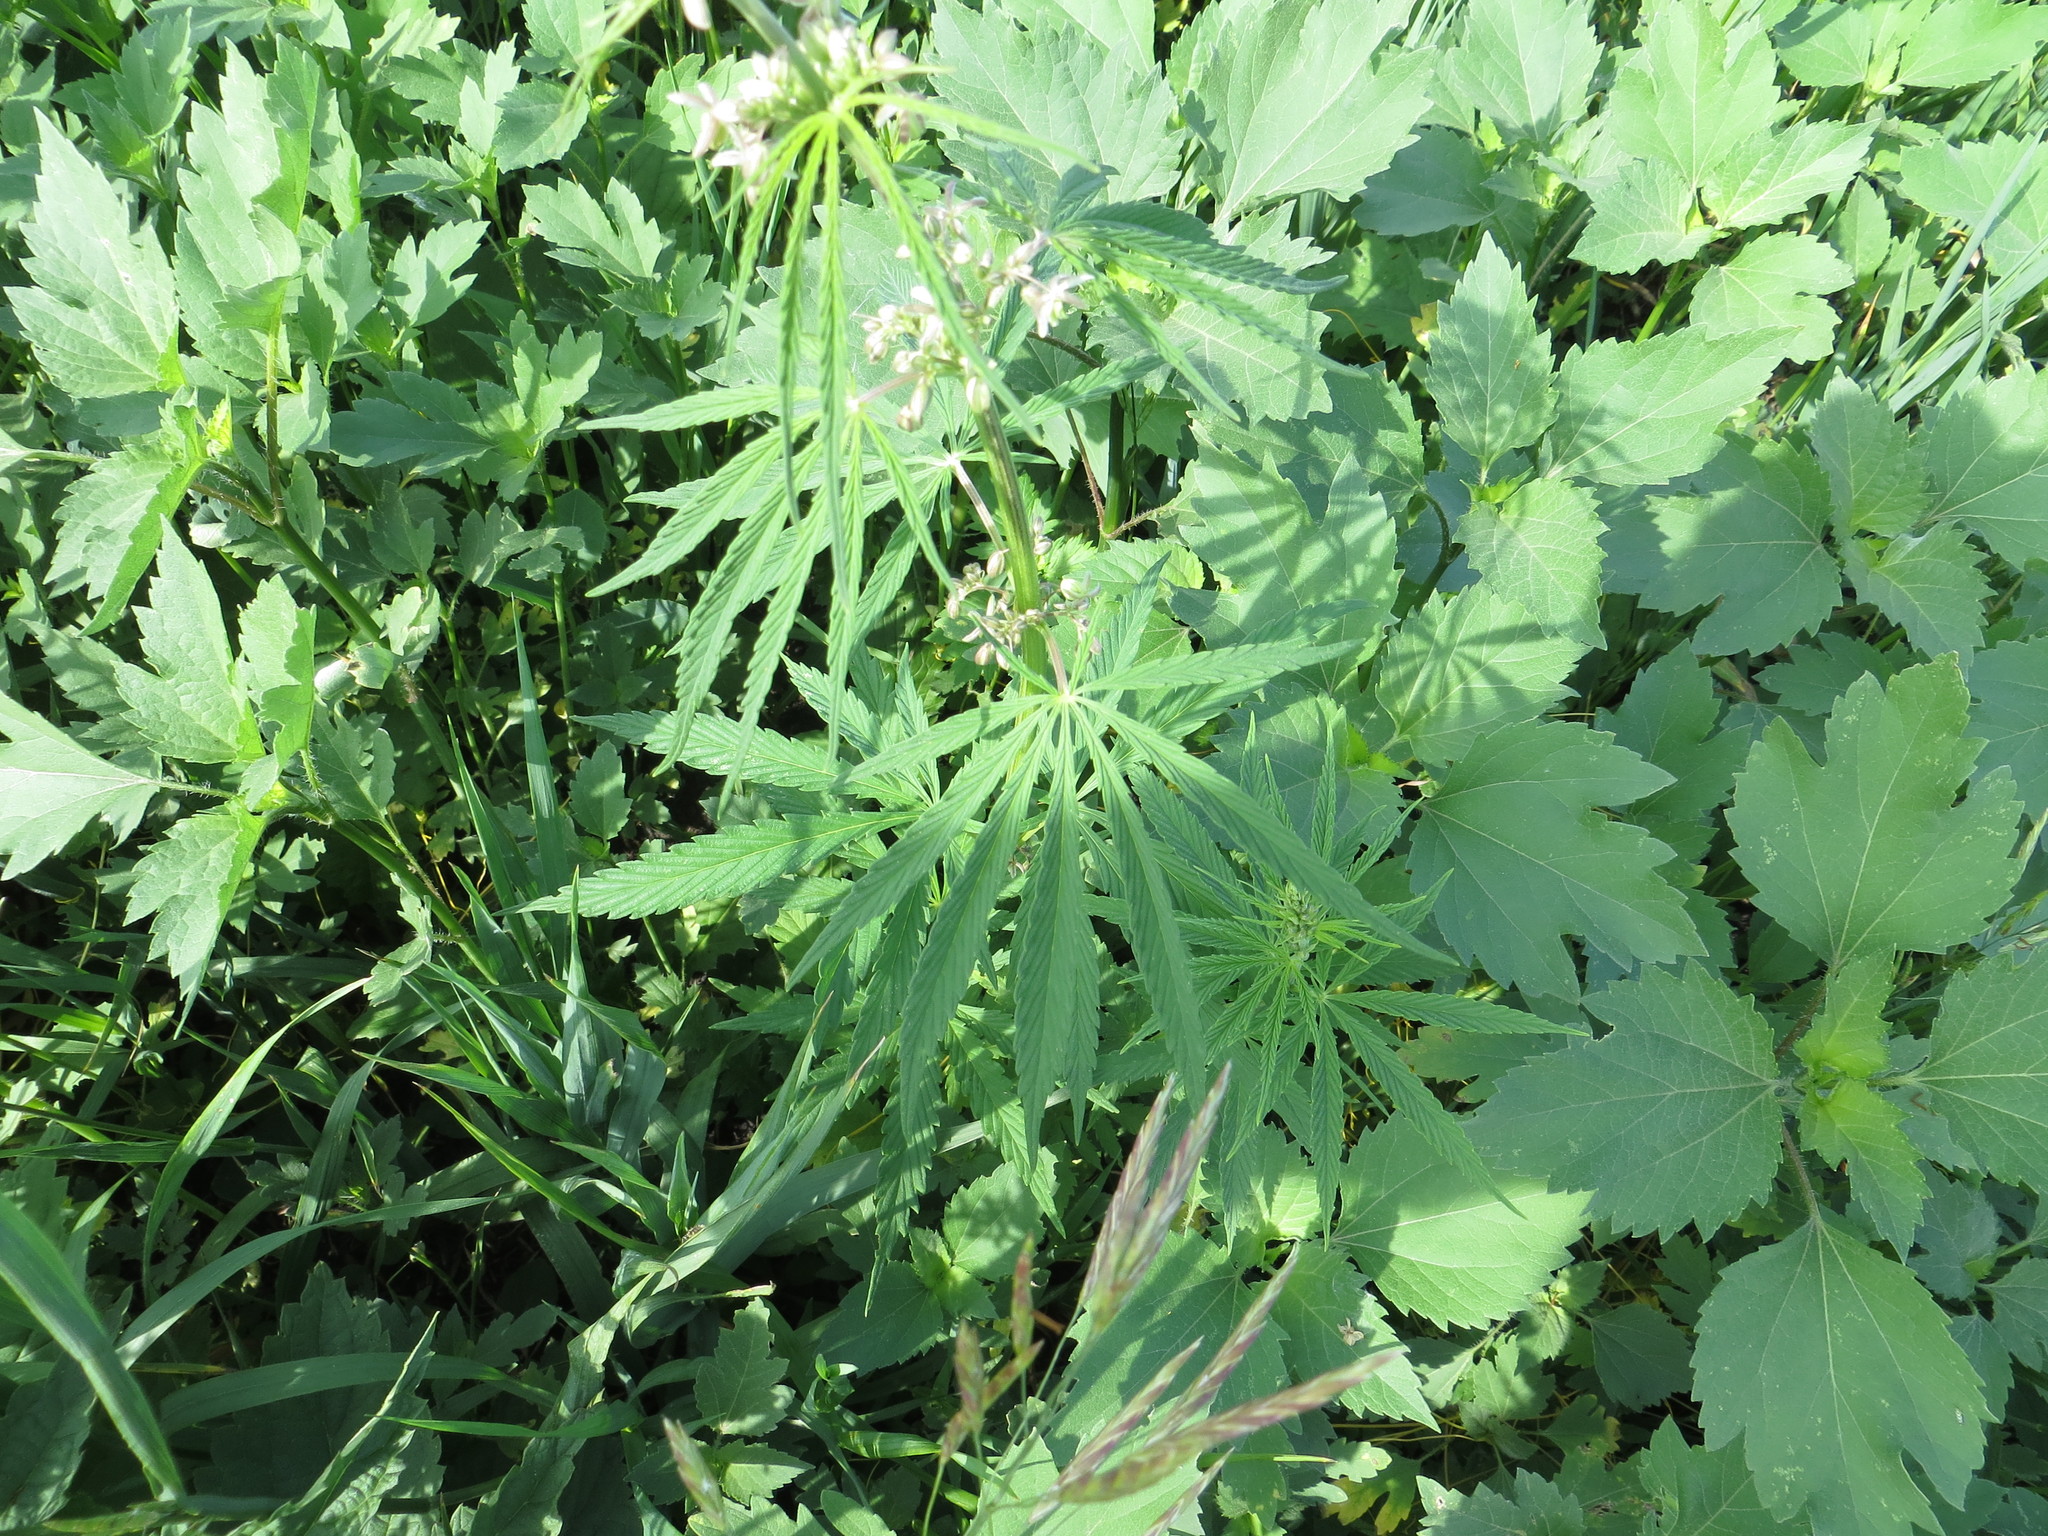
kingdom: Plantae
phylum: Tracheophyta
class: Magnoliopsida
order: Rosales
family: Cannabaceae
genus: Cannabis
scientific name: Cannabis sativa
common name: Hemp
